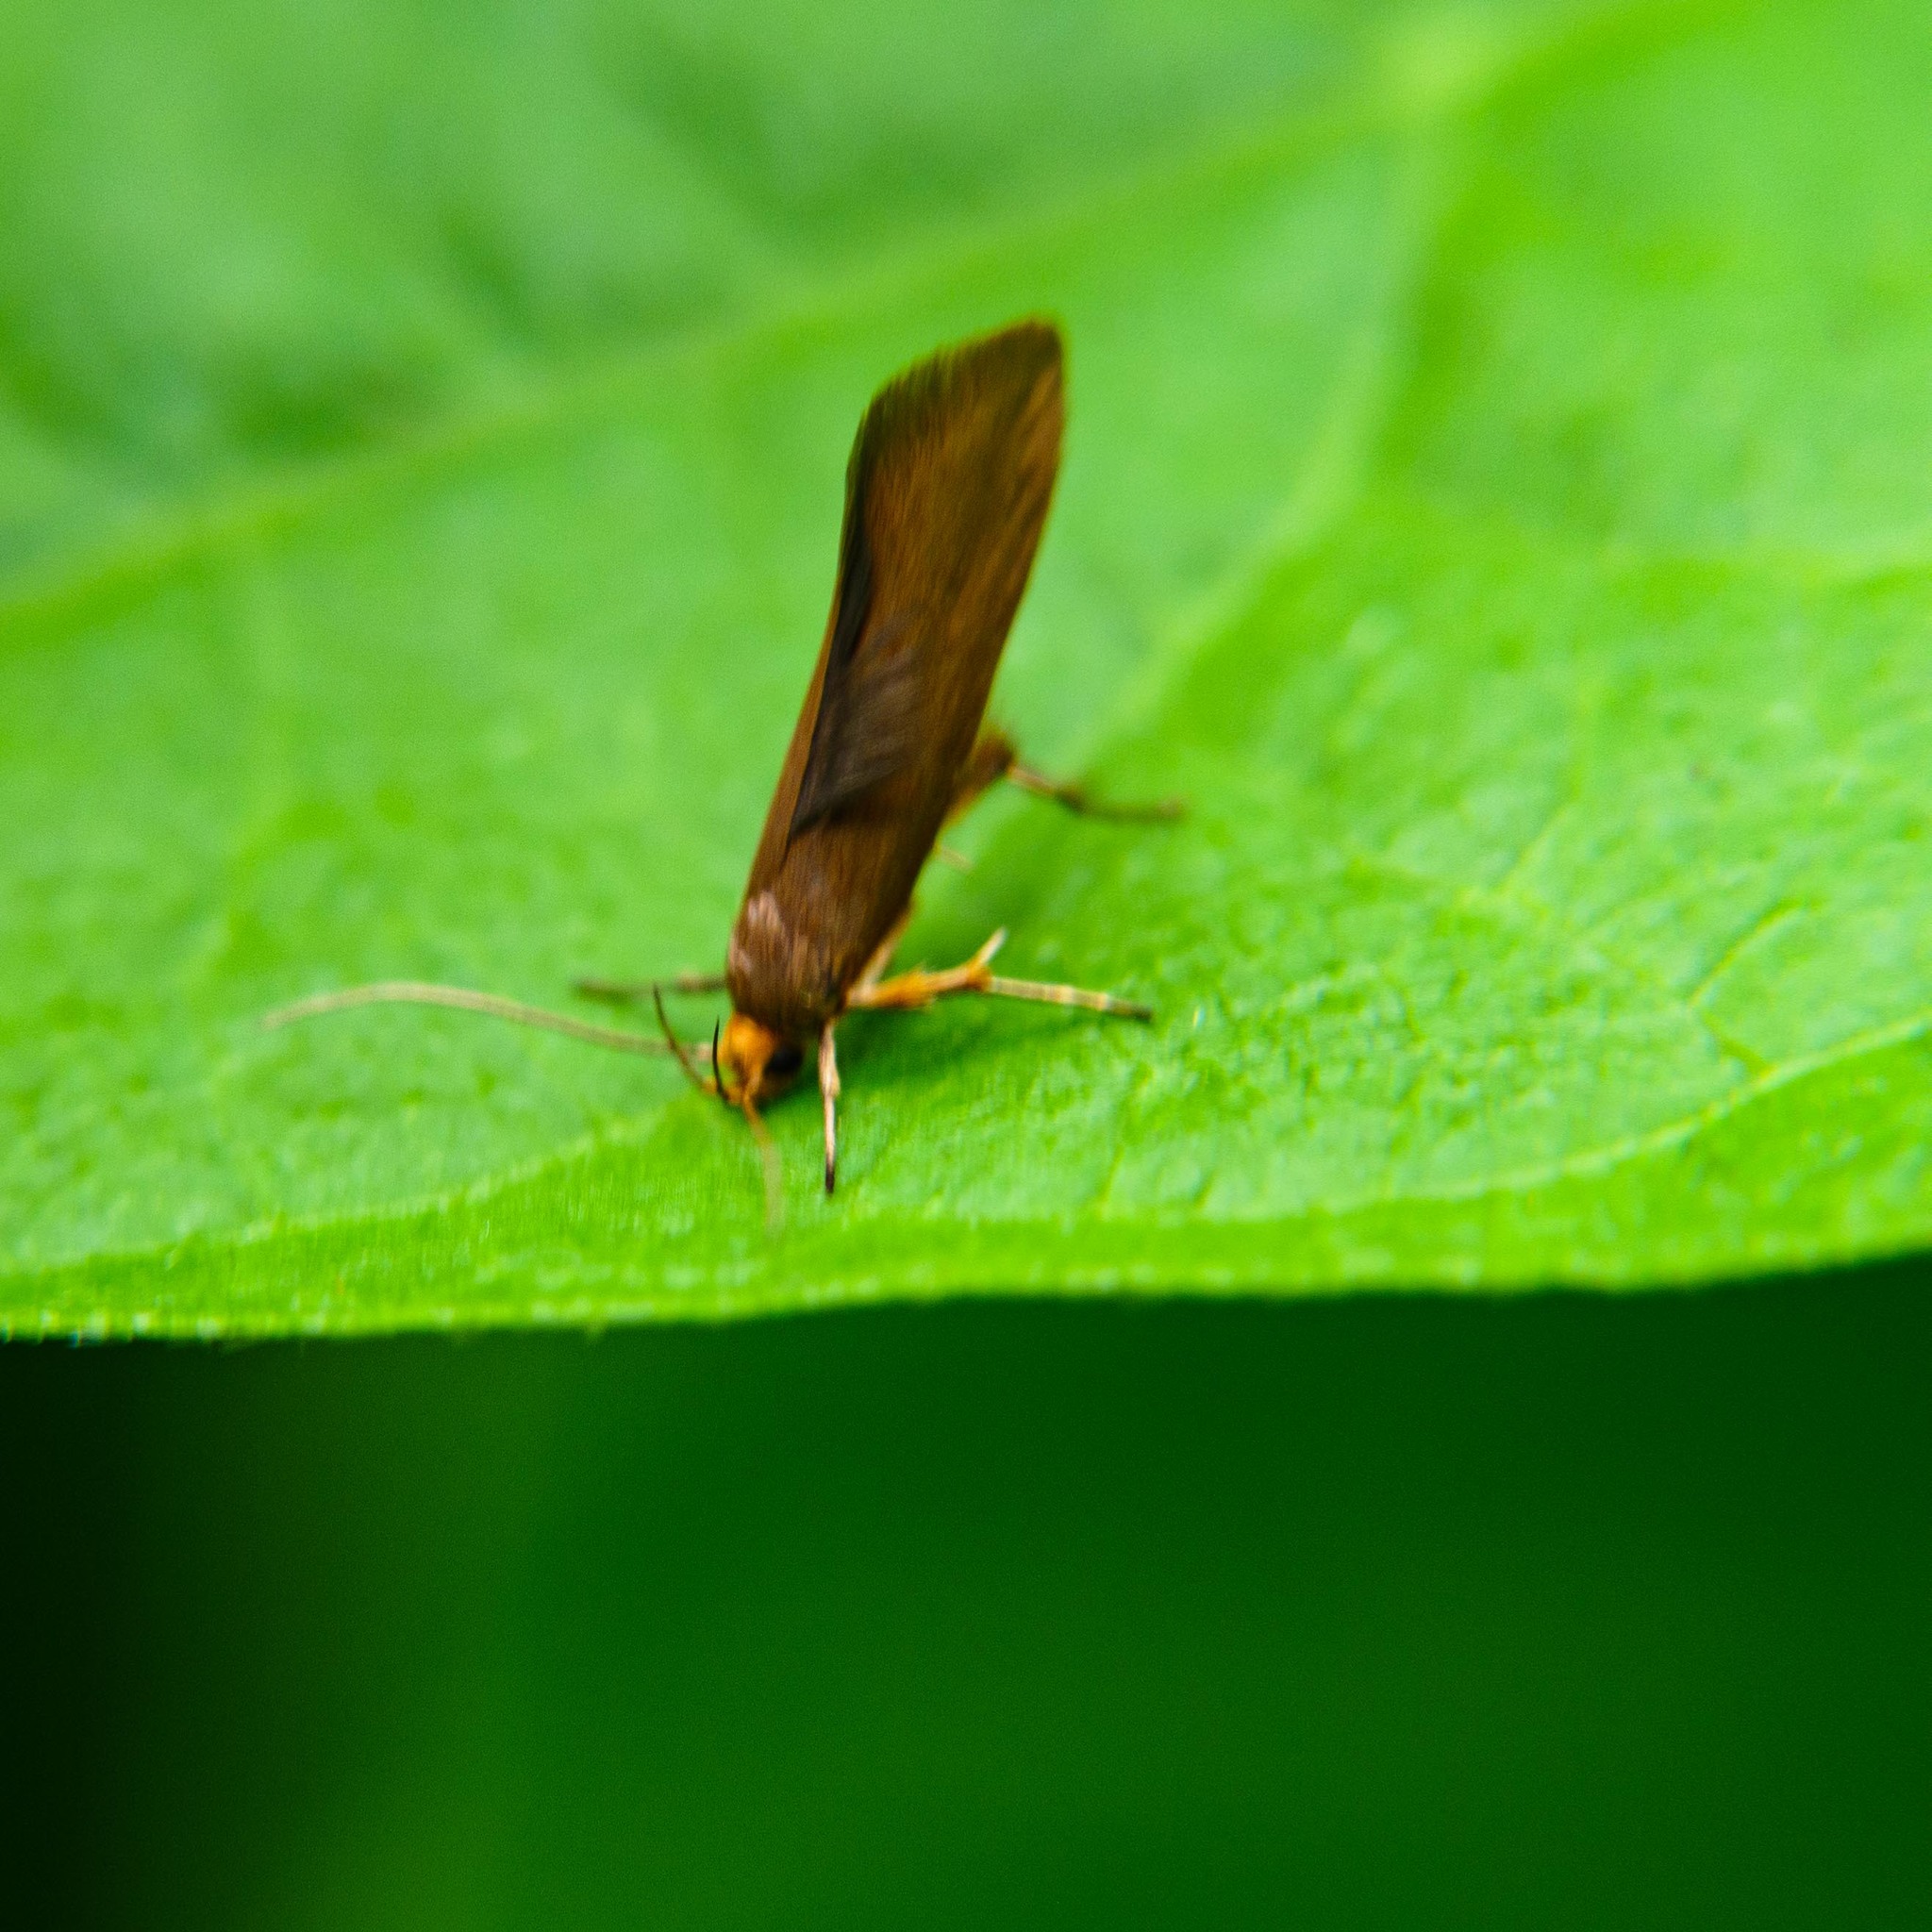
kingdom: Animalia
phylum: Arthropoda
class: Insecta
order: Lepidoptera
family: Oecophoridae
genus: Borkhausenia
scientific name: Borkhausenia Crassa unitella
